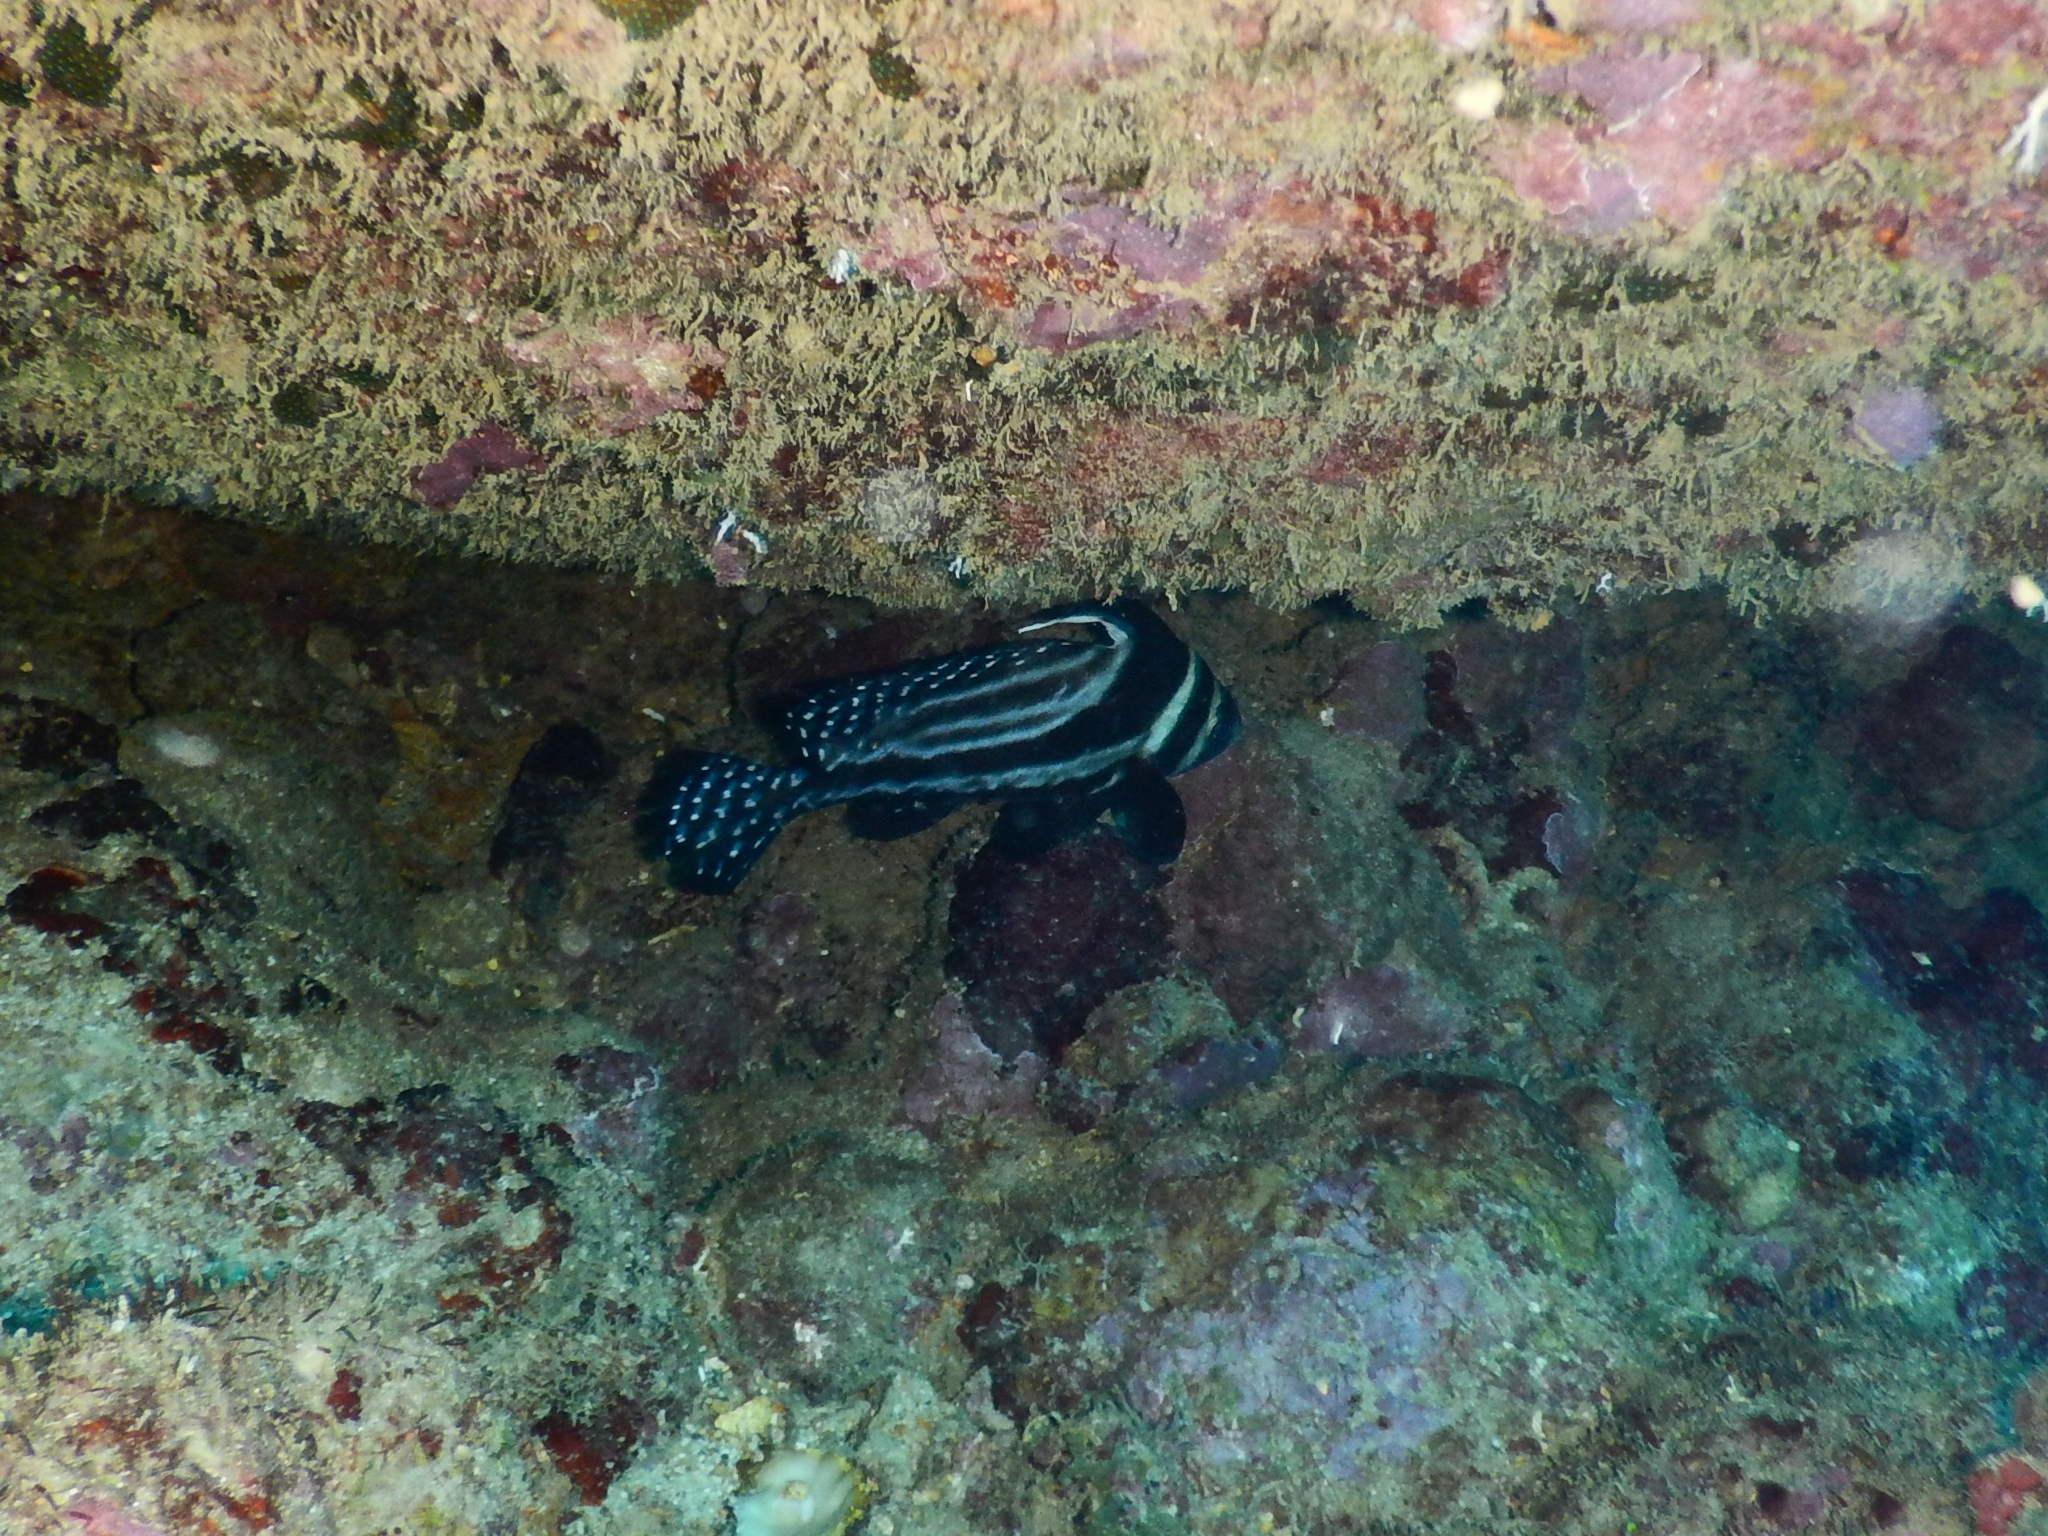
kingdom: Animalia
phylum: Chordata
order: Perciformes
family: Sciaenidae
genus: Equetus
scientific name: Equetus punctatus
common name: Spotted drum
